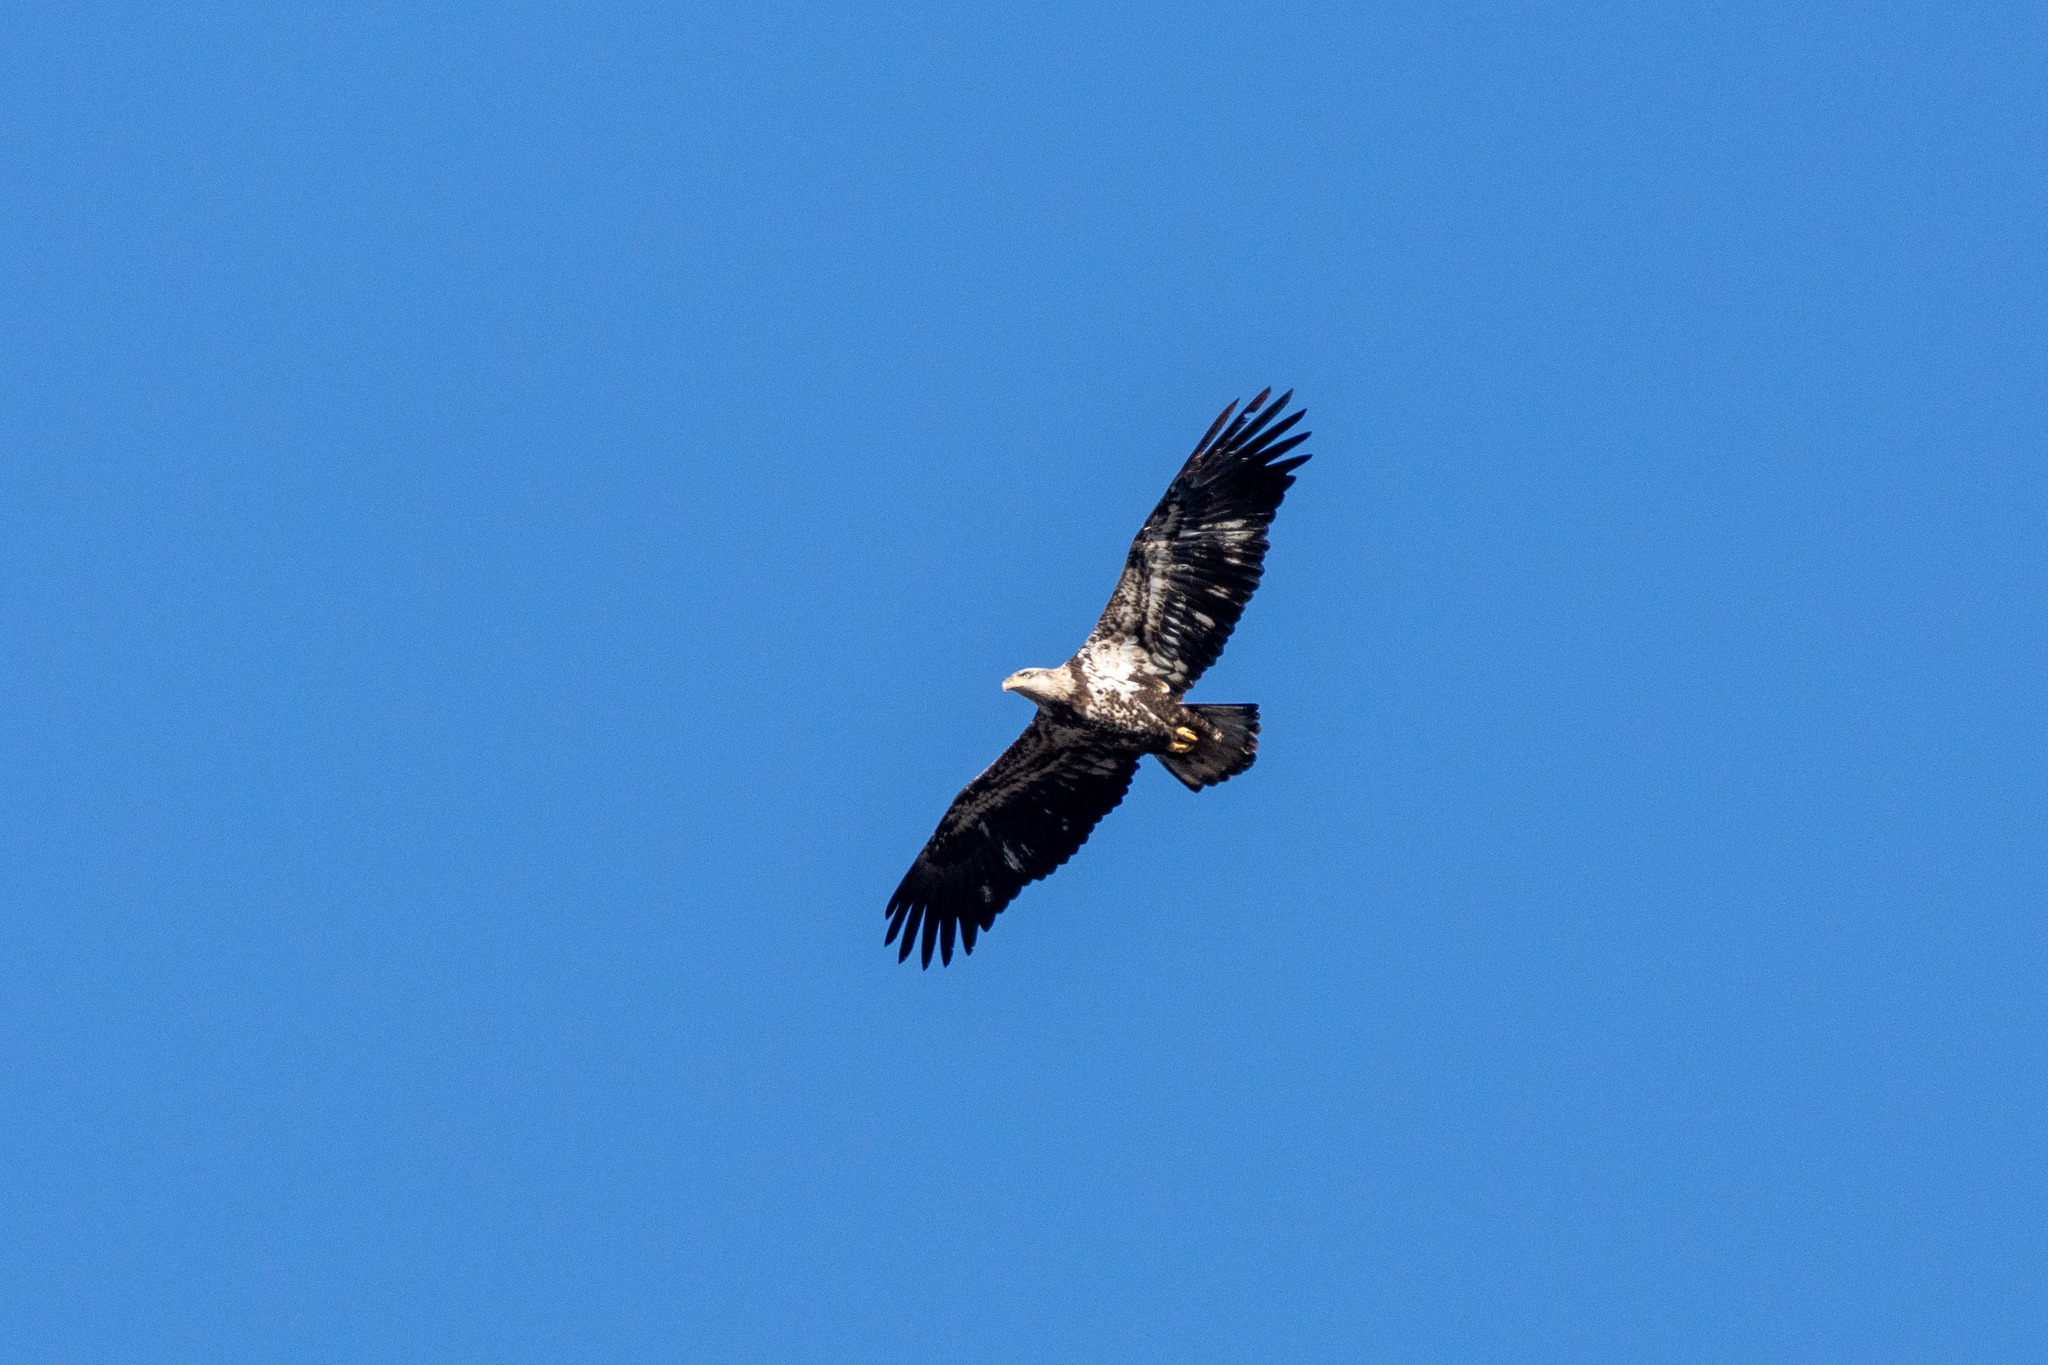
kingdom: Animalia
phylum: Chordata
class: Aves
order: Accipitriformes
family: Accipitridae
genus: Haliaeetus
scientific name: Haliaeetus leucocephalus
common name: Bald eagle
